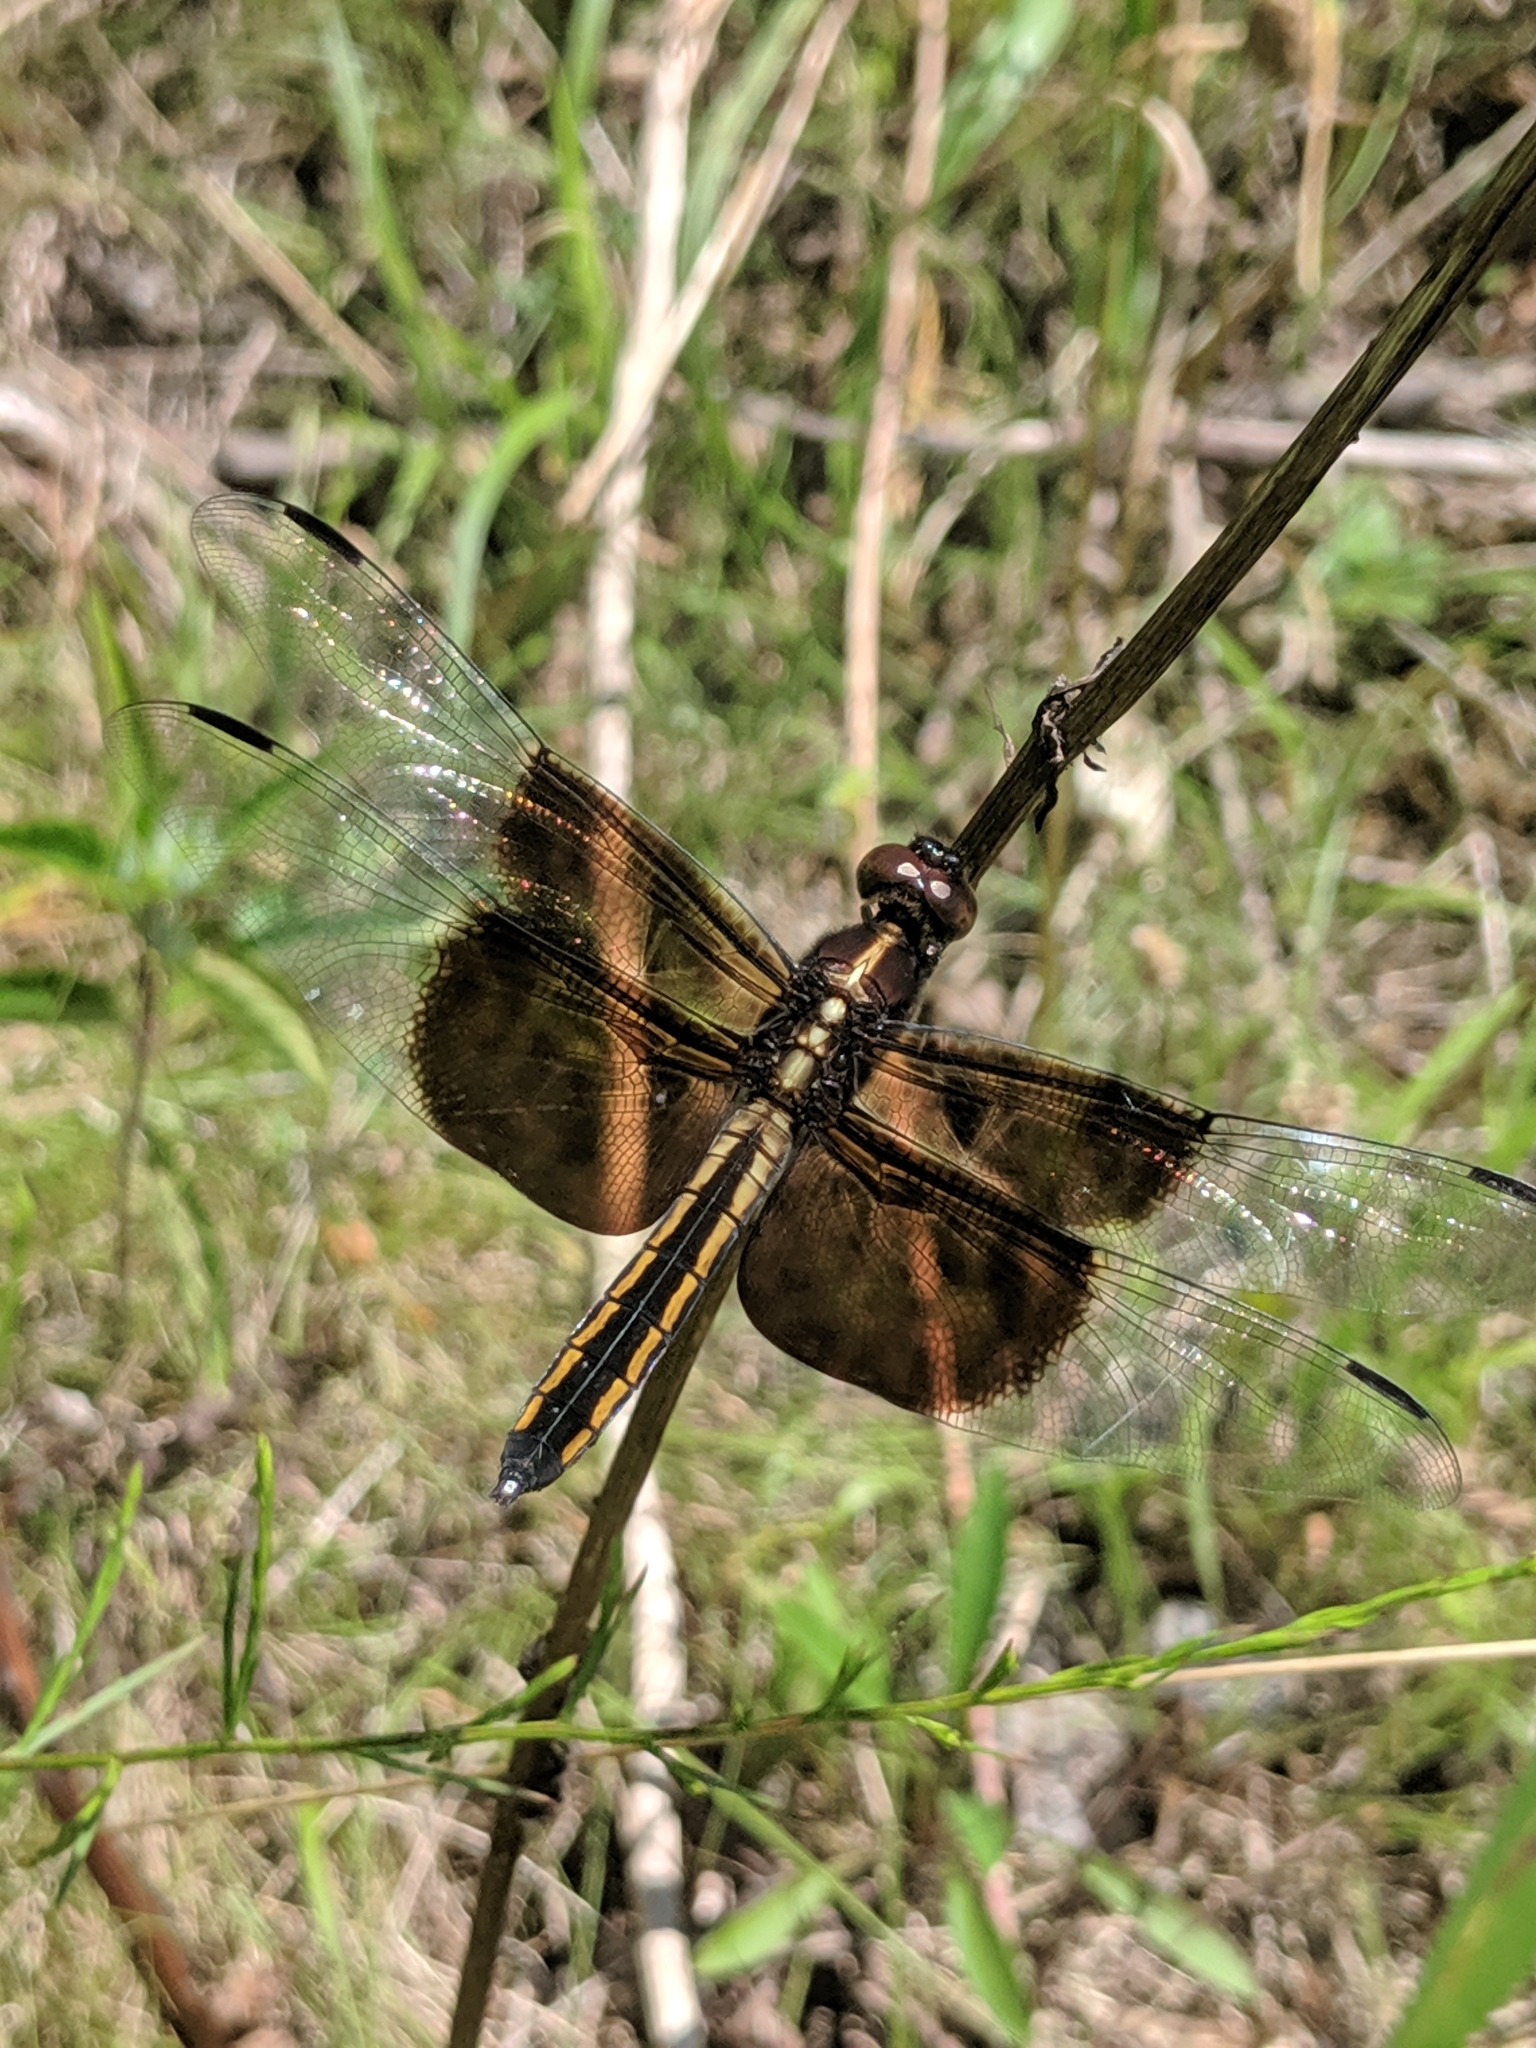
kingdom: Animalia
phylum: Arthropoda
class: Insecta
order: Odonata
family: Libellulidae
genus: Libellula
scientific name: Libellula luctuosa
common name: Widow skimmer
